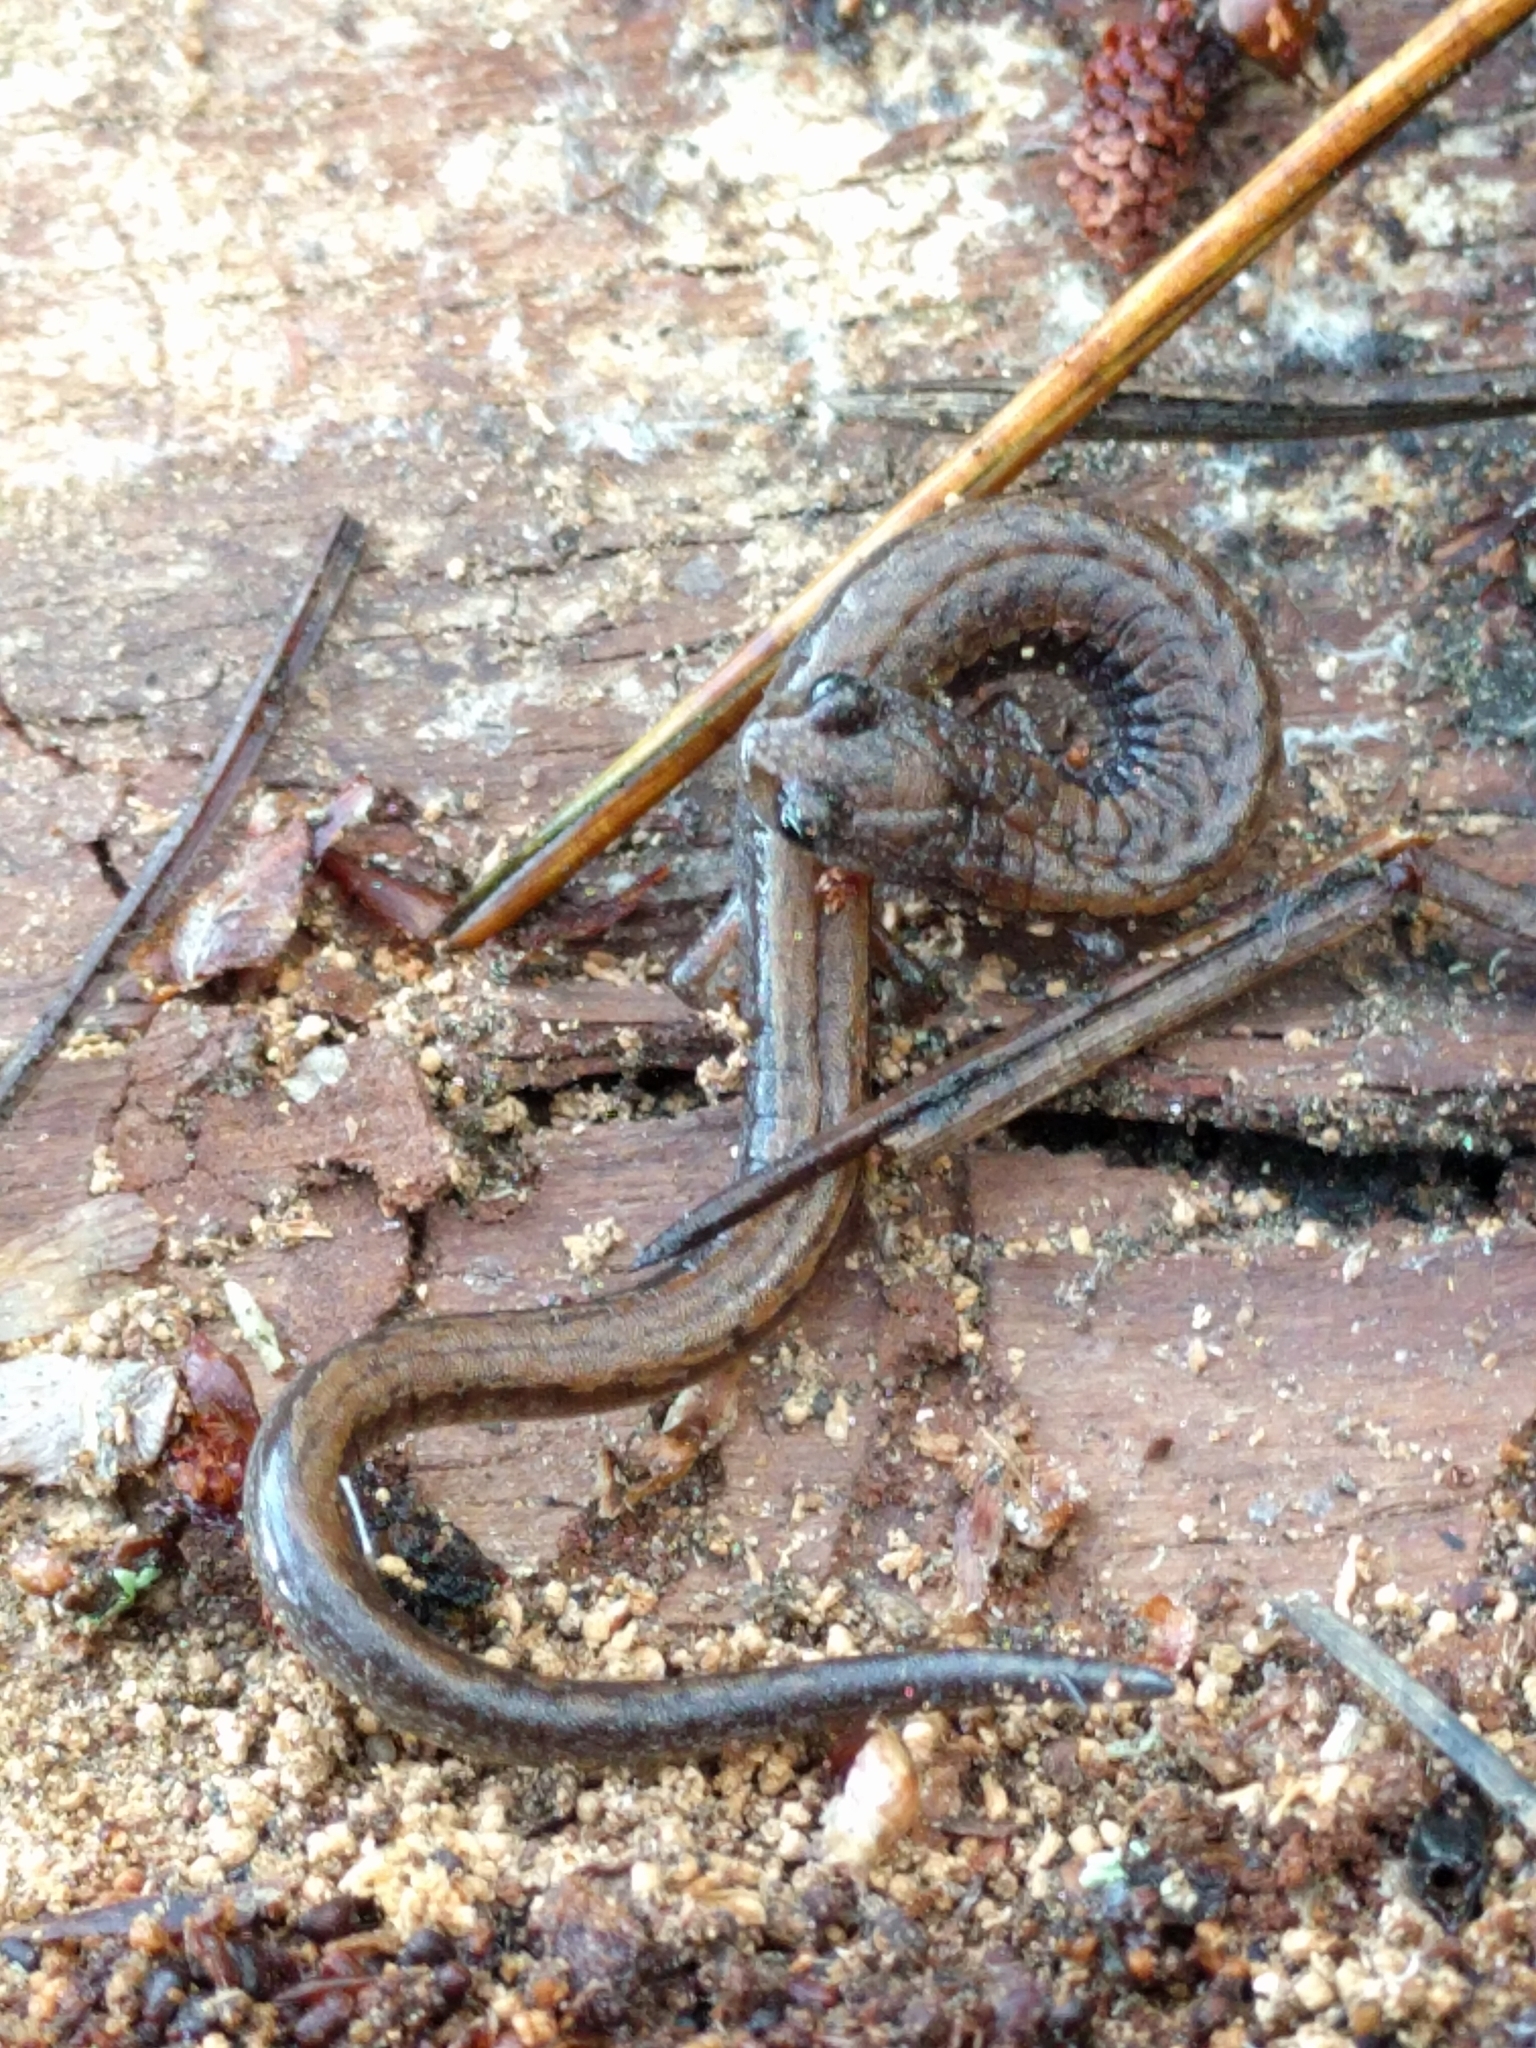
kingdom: Animalia
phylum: Chordata
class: Amphibia
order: Caudata
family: Plethodontidae
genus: Batrachoseps
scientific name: Batrachoseps attenuatus
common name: California slender salamander
